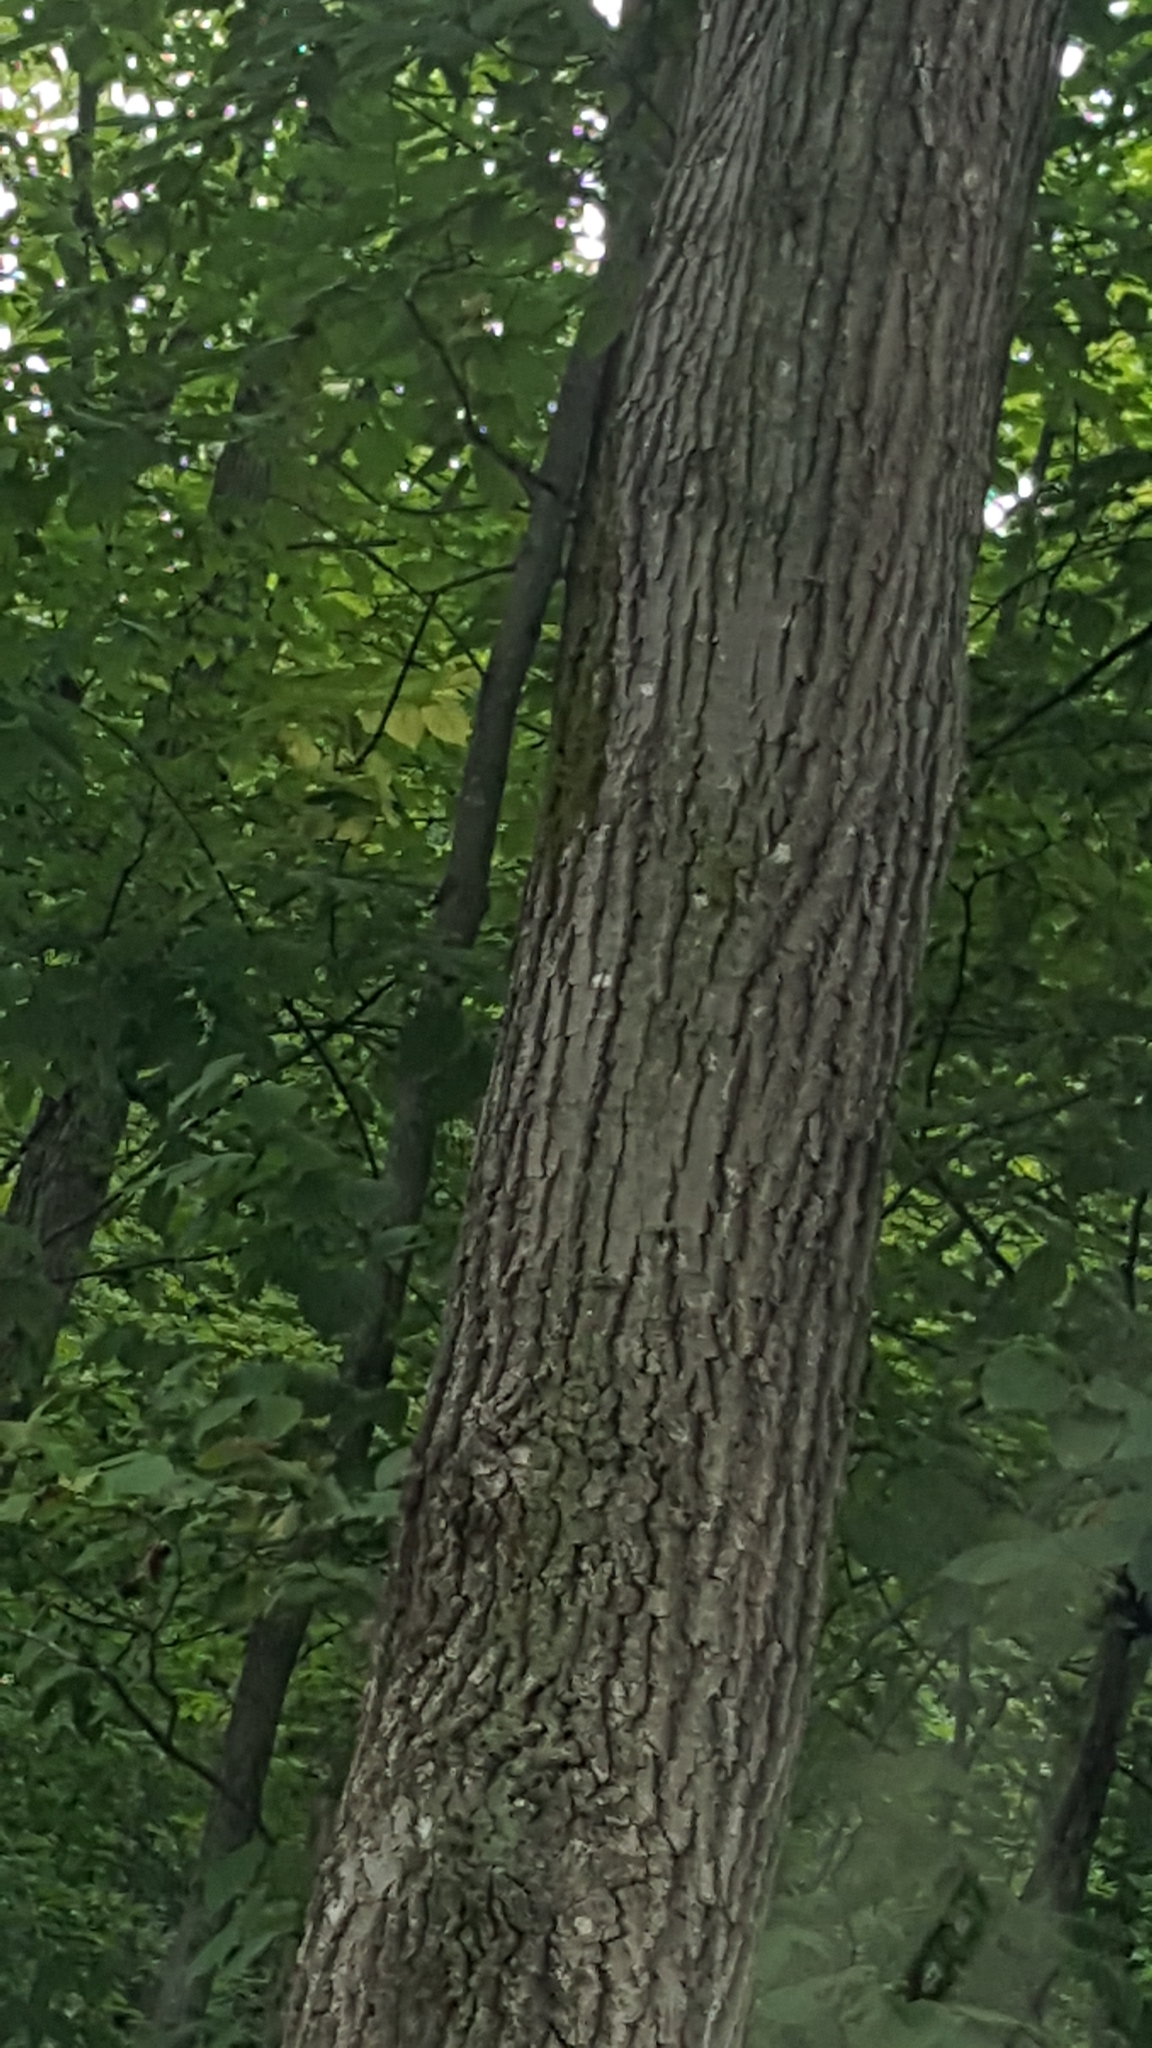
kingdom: Plantae
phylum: Tracheophyta
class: Magnoliopsida
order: Fagales
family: Fagaceae
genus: Quercus
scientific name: Quercus rubra
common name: Red oak
